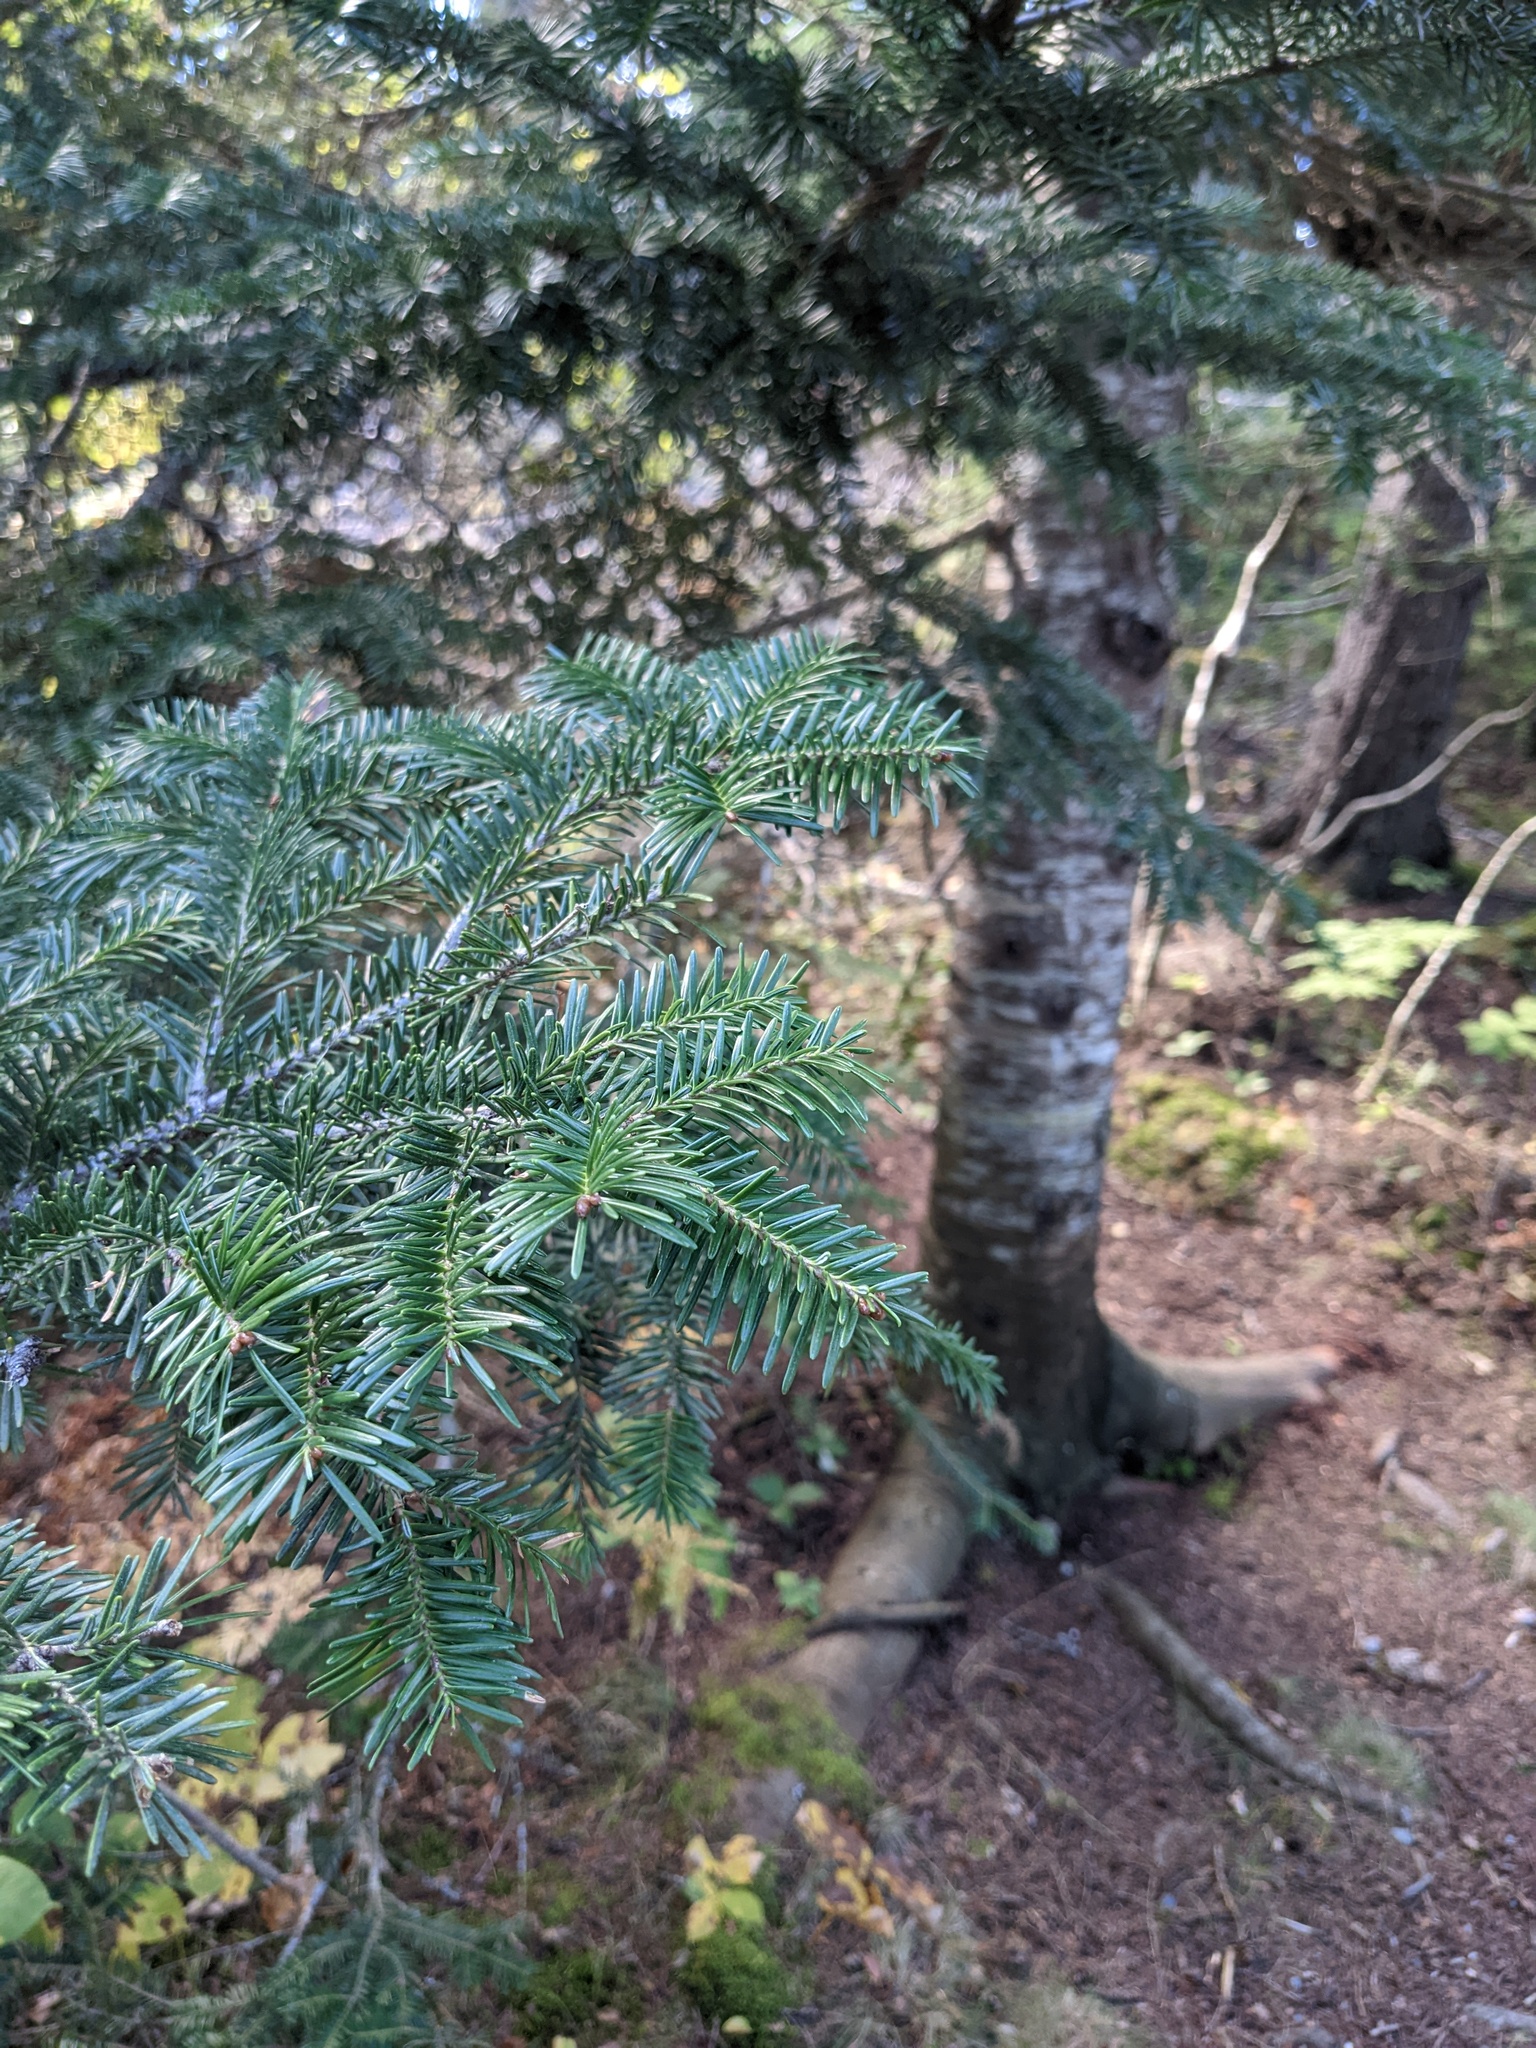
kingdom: Plantae
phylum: Tracheophyta
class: Pinopsida
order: Pinales
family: Pinaceae
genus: Abies
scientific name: Abies balsamea
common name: Balsam fir
